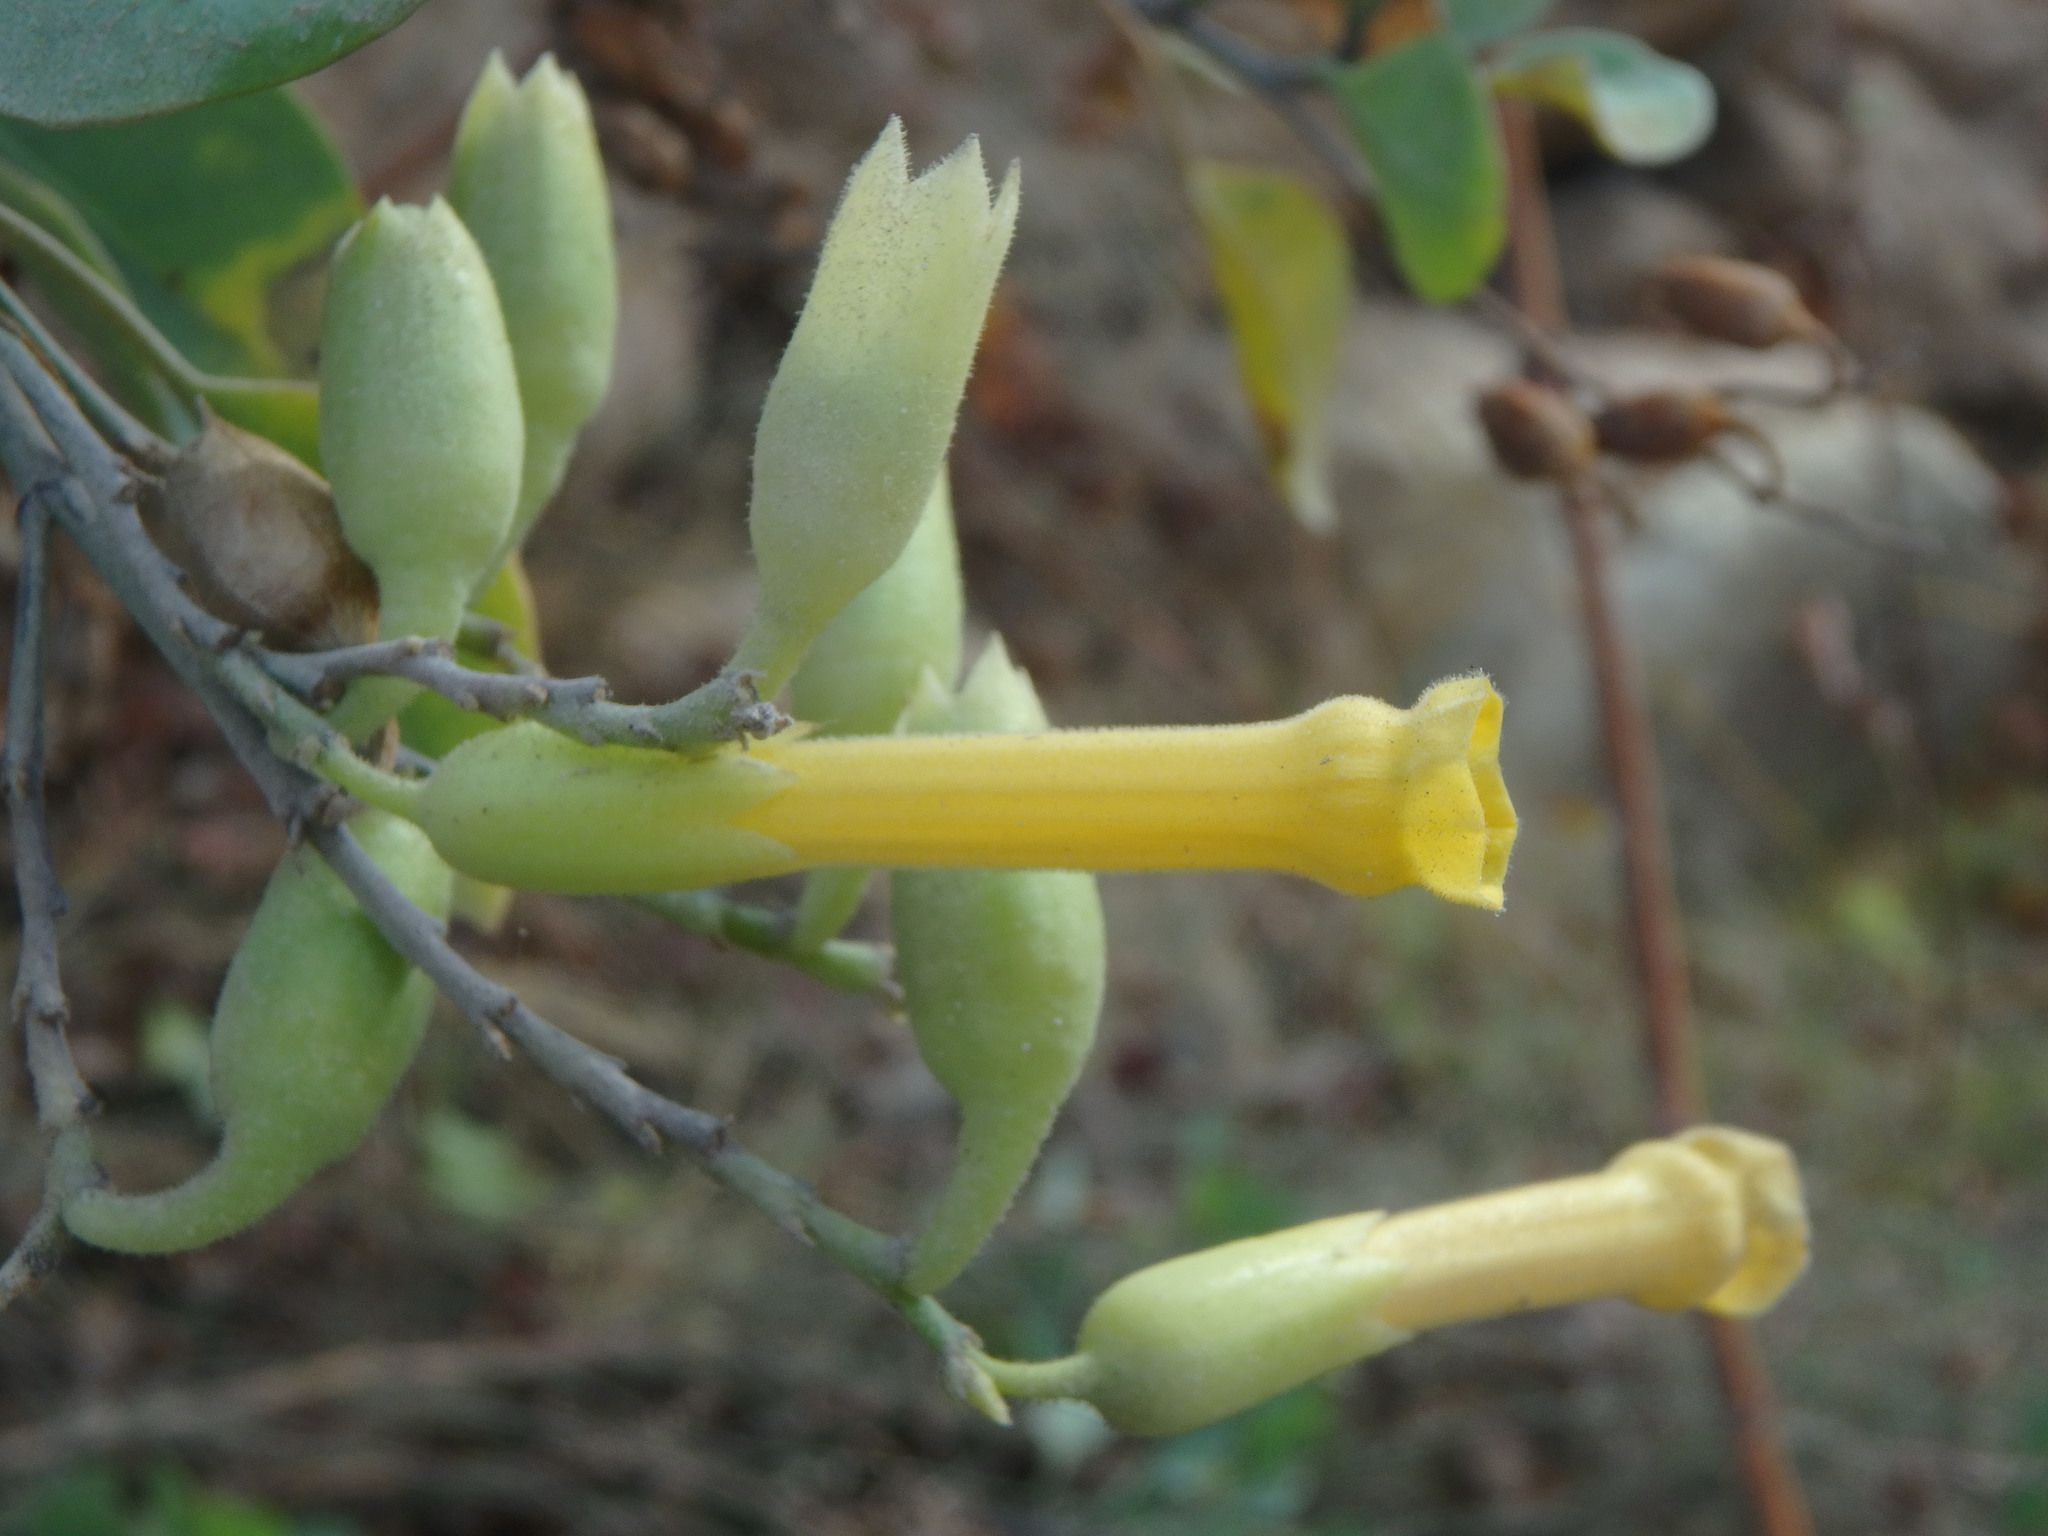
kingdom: Plantae
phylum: Tracheophyta
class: Magnoliopsida
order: Solanales
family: Solanaceae
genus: Nicotiana
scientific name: Nicotiana glauca
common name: Tree tobacco
